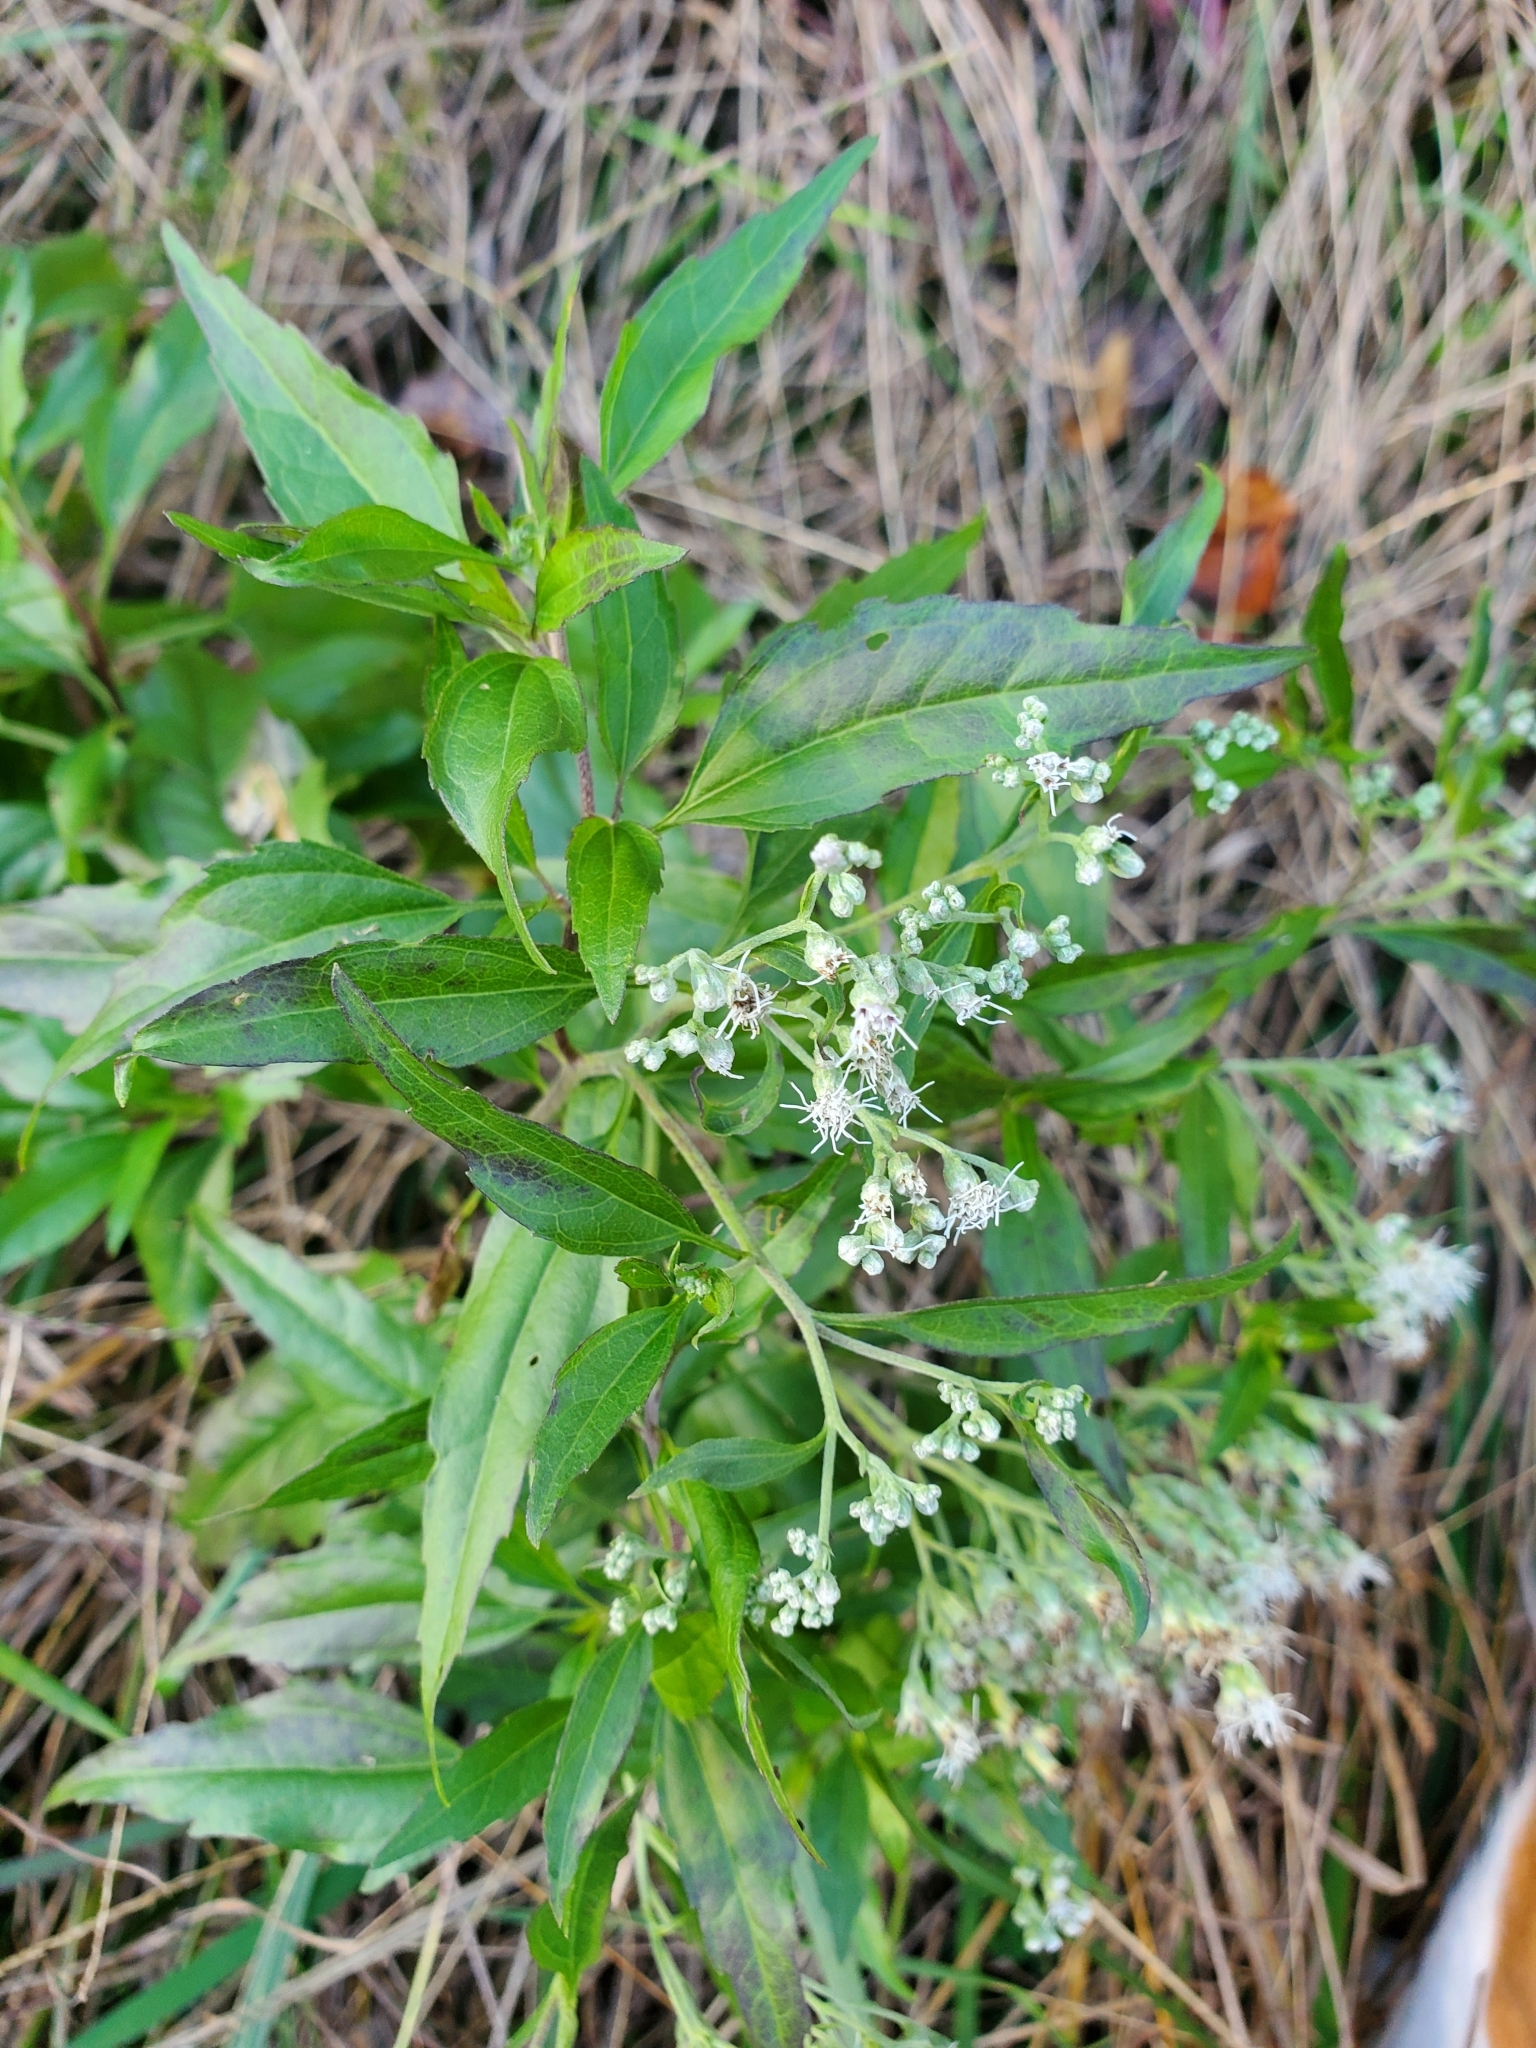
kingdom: Plantae
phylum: Tracheophyta
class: Magnoliopsida
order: Asterales
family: Asteraceae
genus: Eupatorium
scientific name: Eupatorium serotinum
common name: Late boneset
